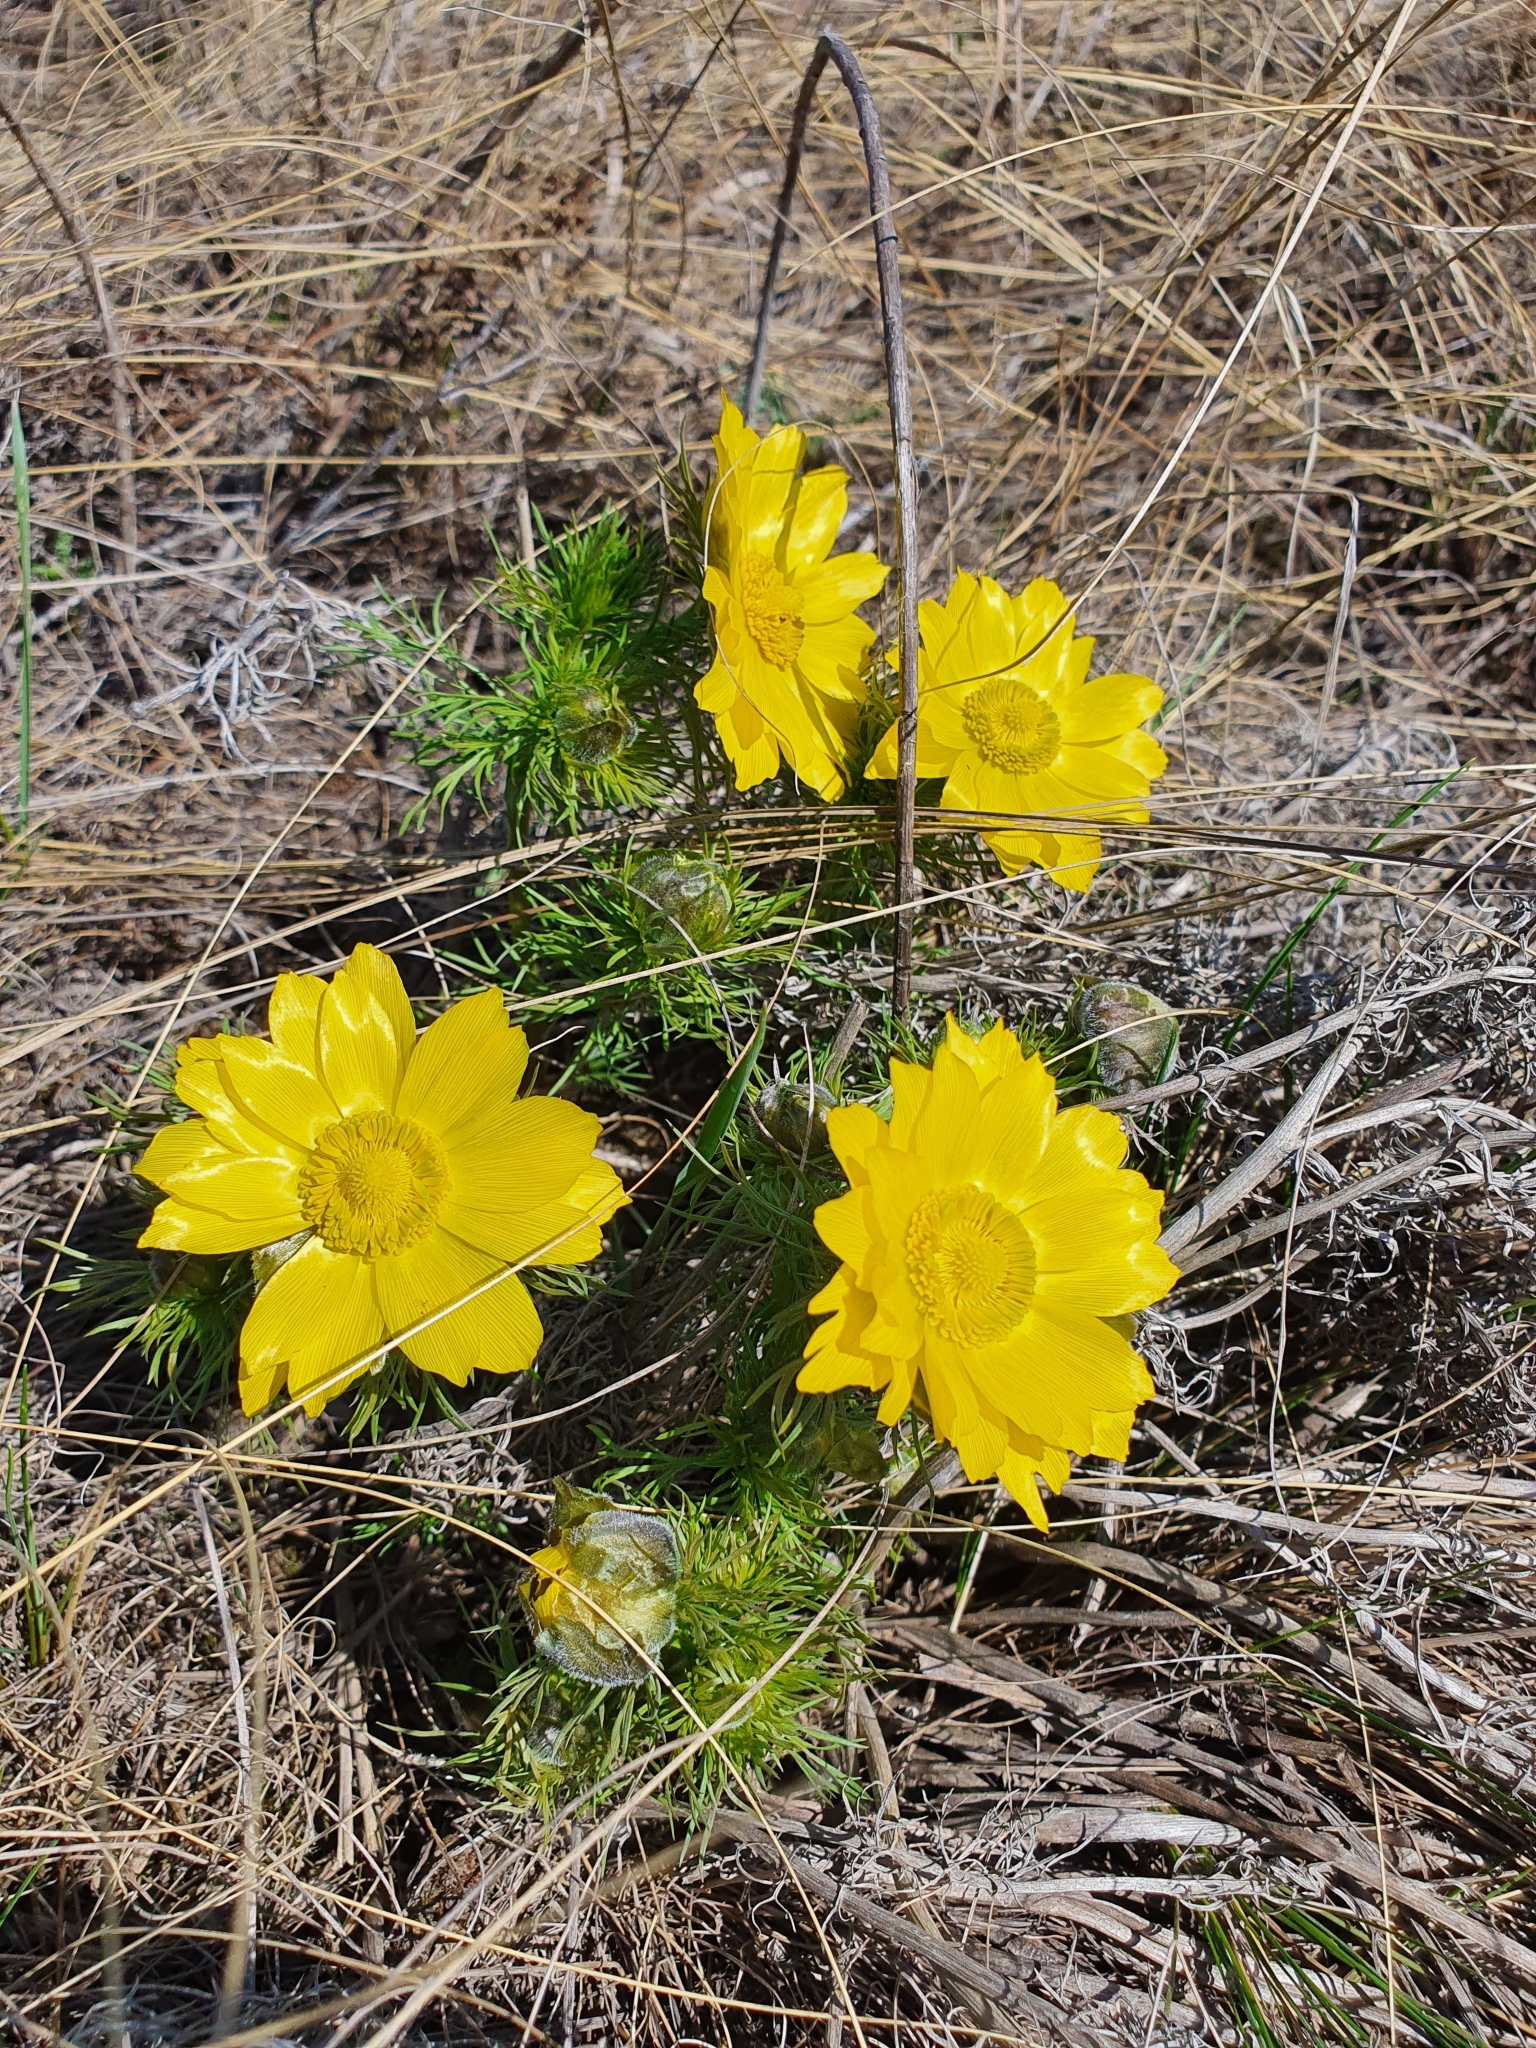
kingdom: Plantae
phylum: Tracheophyta
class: Magnoliopsida
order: Ranunculales
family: Ranunculaceae
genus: Adonis
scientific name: Adonis vernalis
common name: Yellow pheasants-eye
